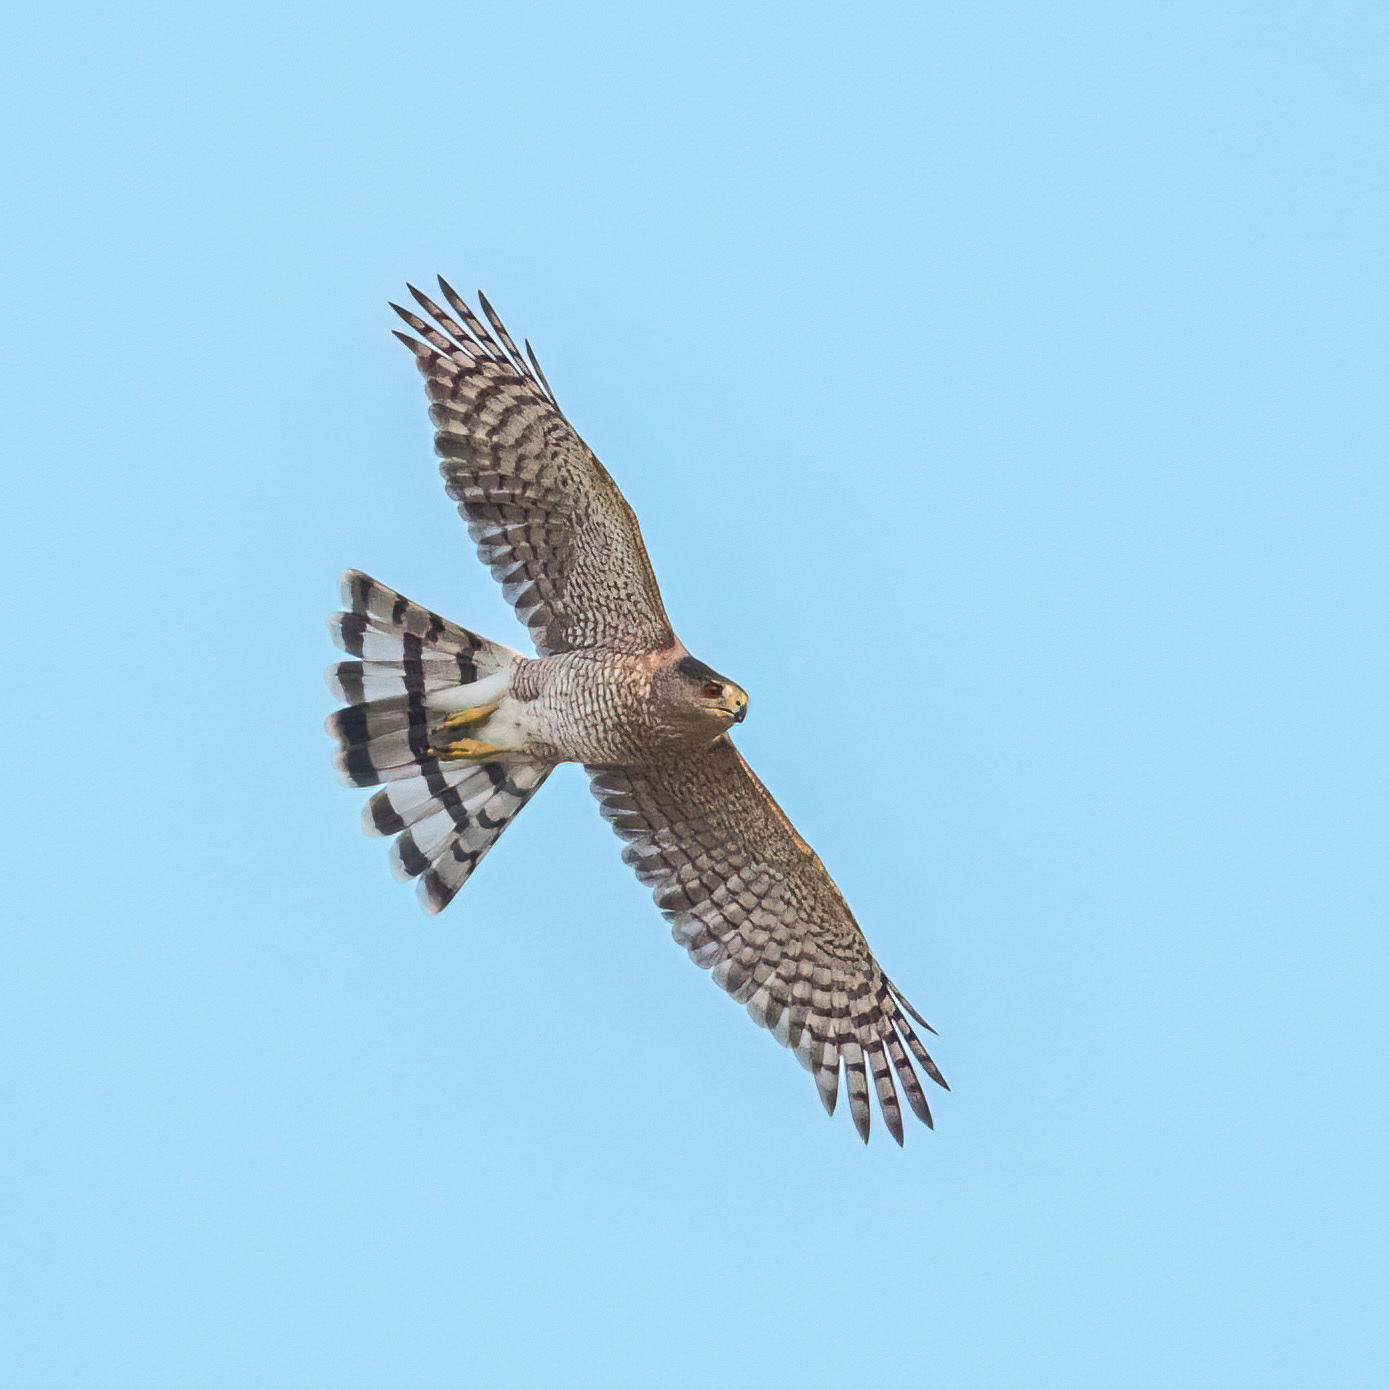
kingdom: Animalia
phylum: Chordata
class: Aves
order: Accipitriformes
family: Accipitridae
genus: Accipiter
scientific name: Accipiter cooperii
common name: Cooper's hawk
